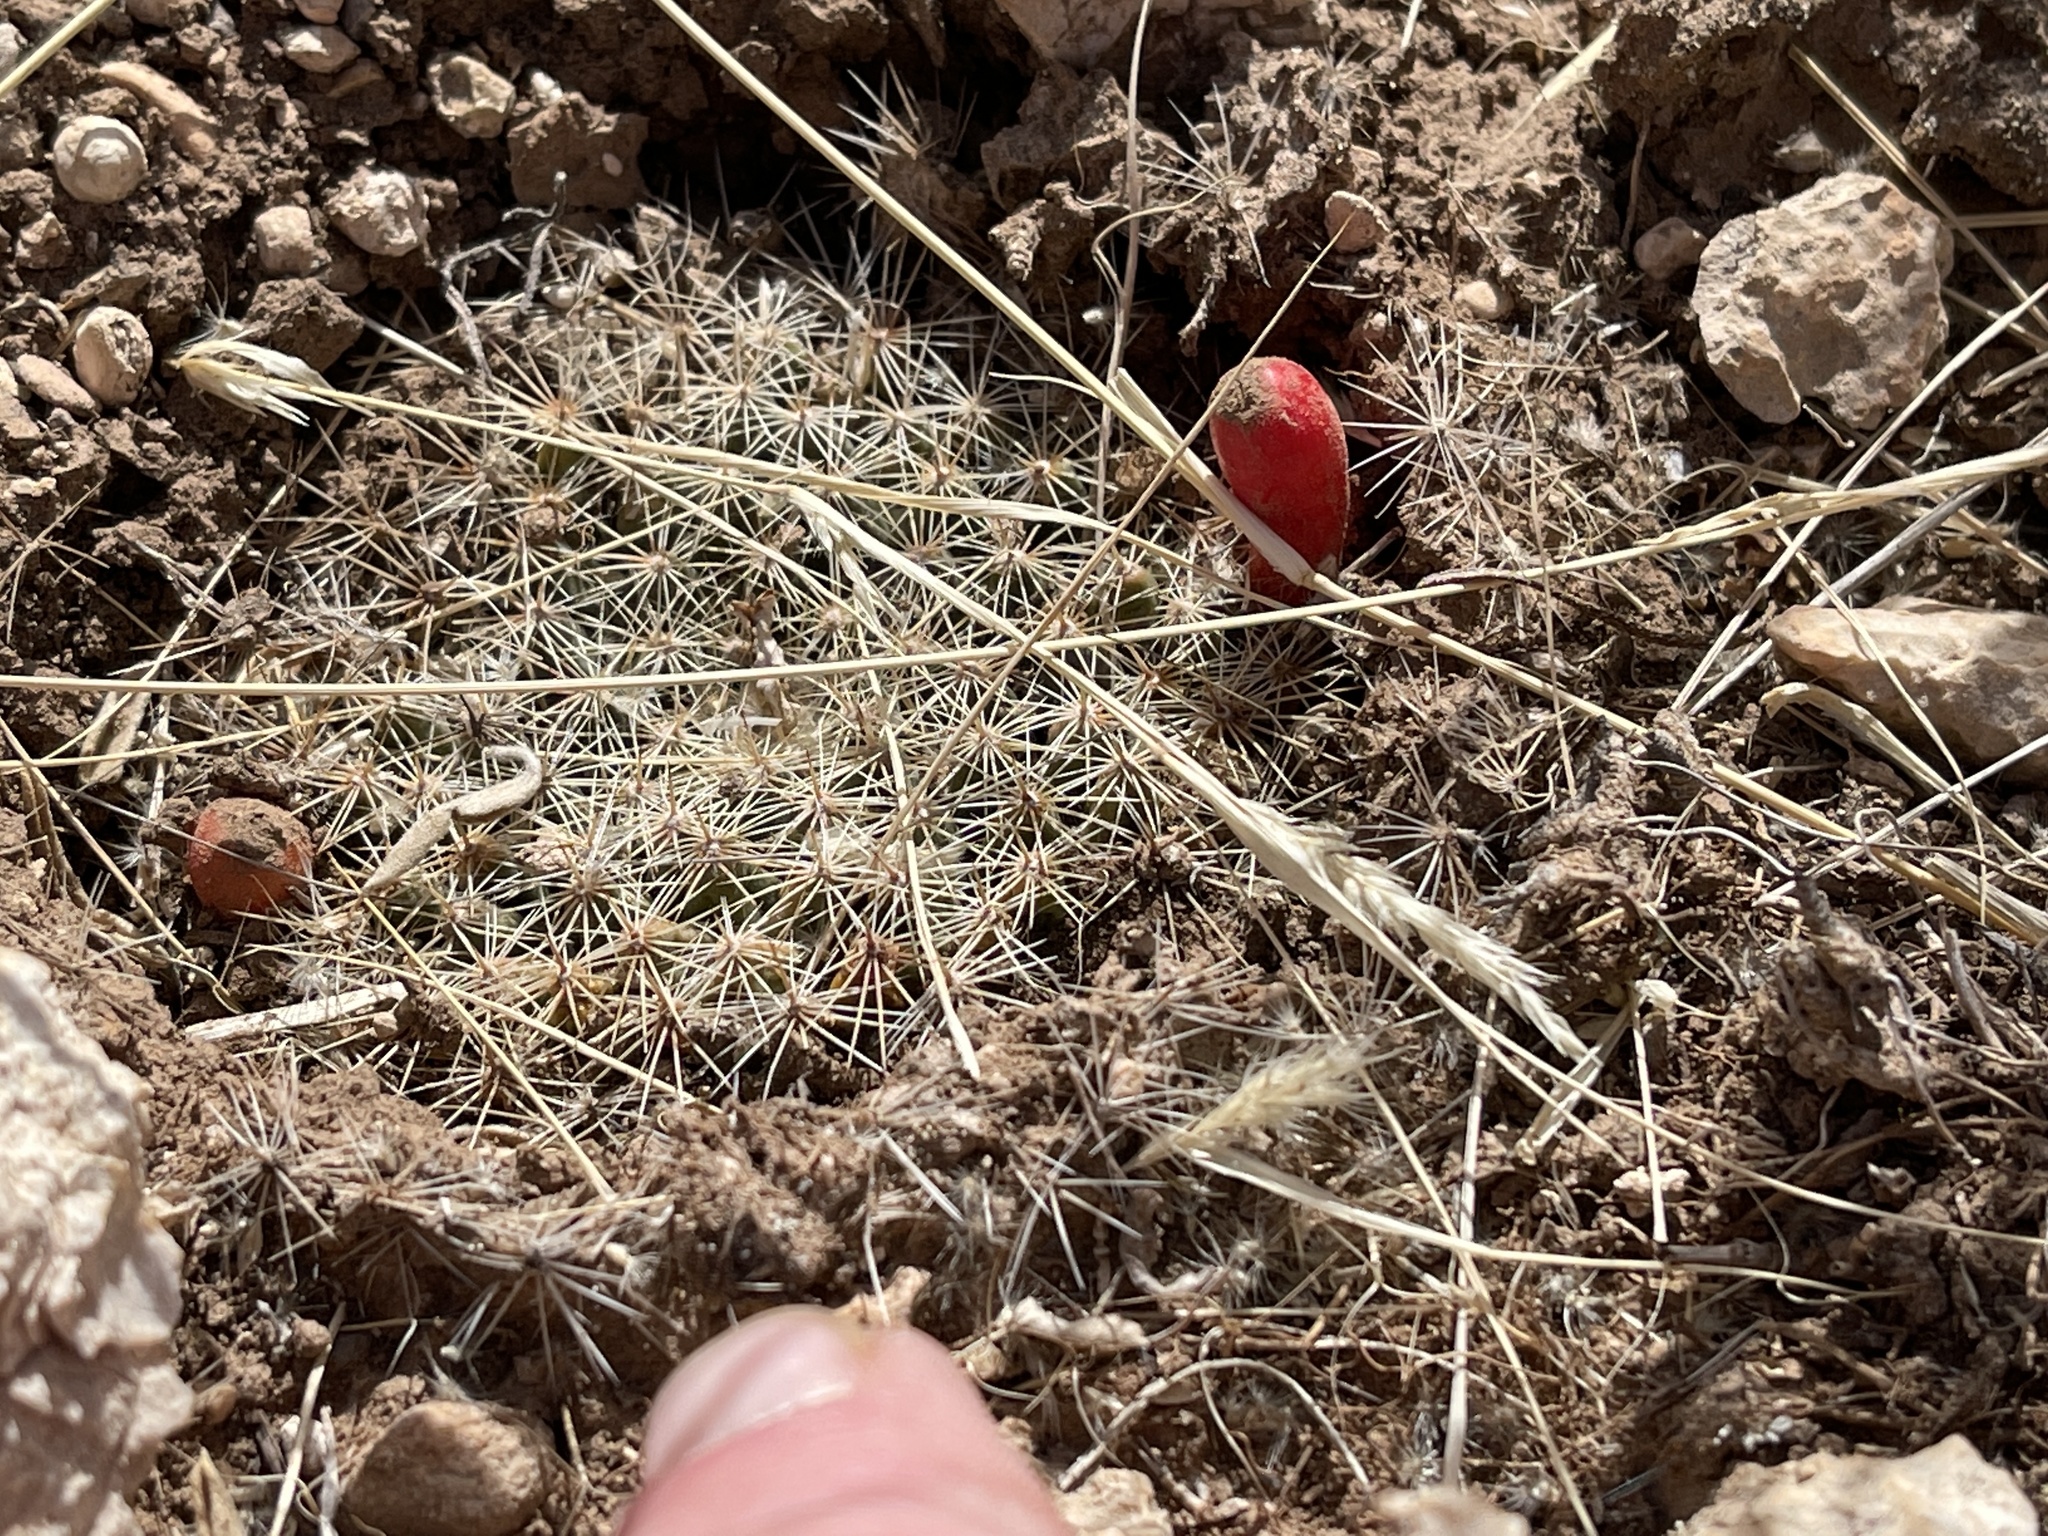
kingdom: Plantae
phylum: Tracheophyta
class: Magnoliopsida
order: Caryophyllales
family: Cactaceae
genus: Mammillaria
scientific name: Mammillaria heyderi
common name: Little nipple cactus
